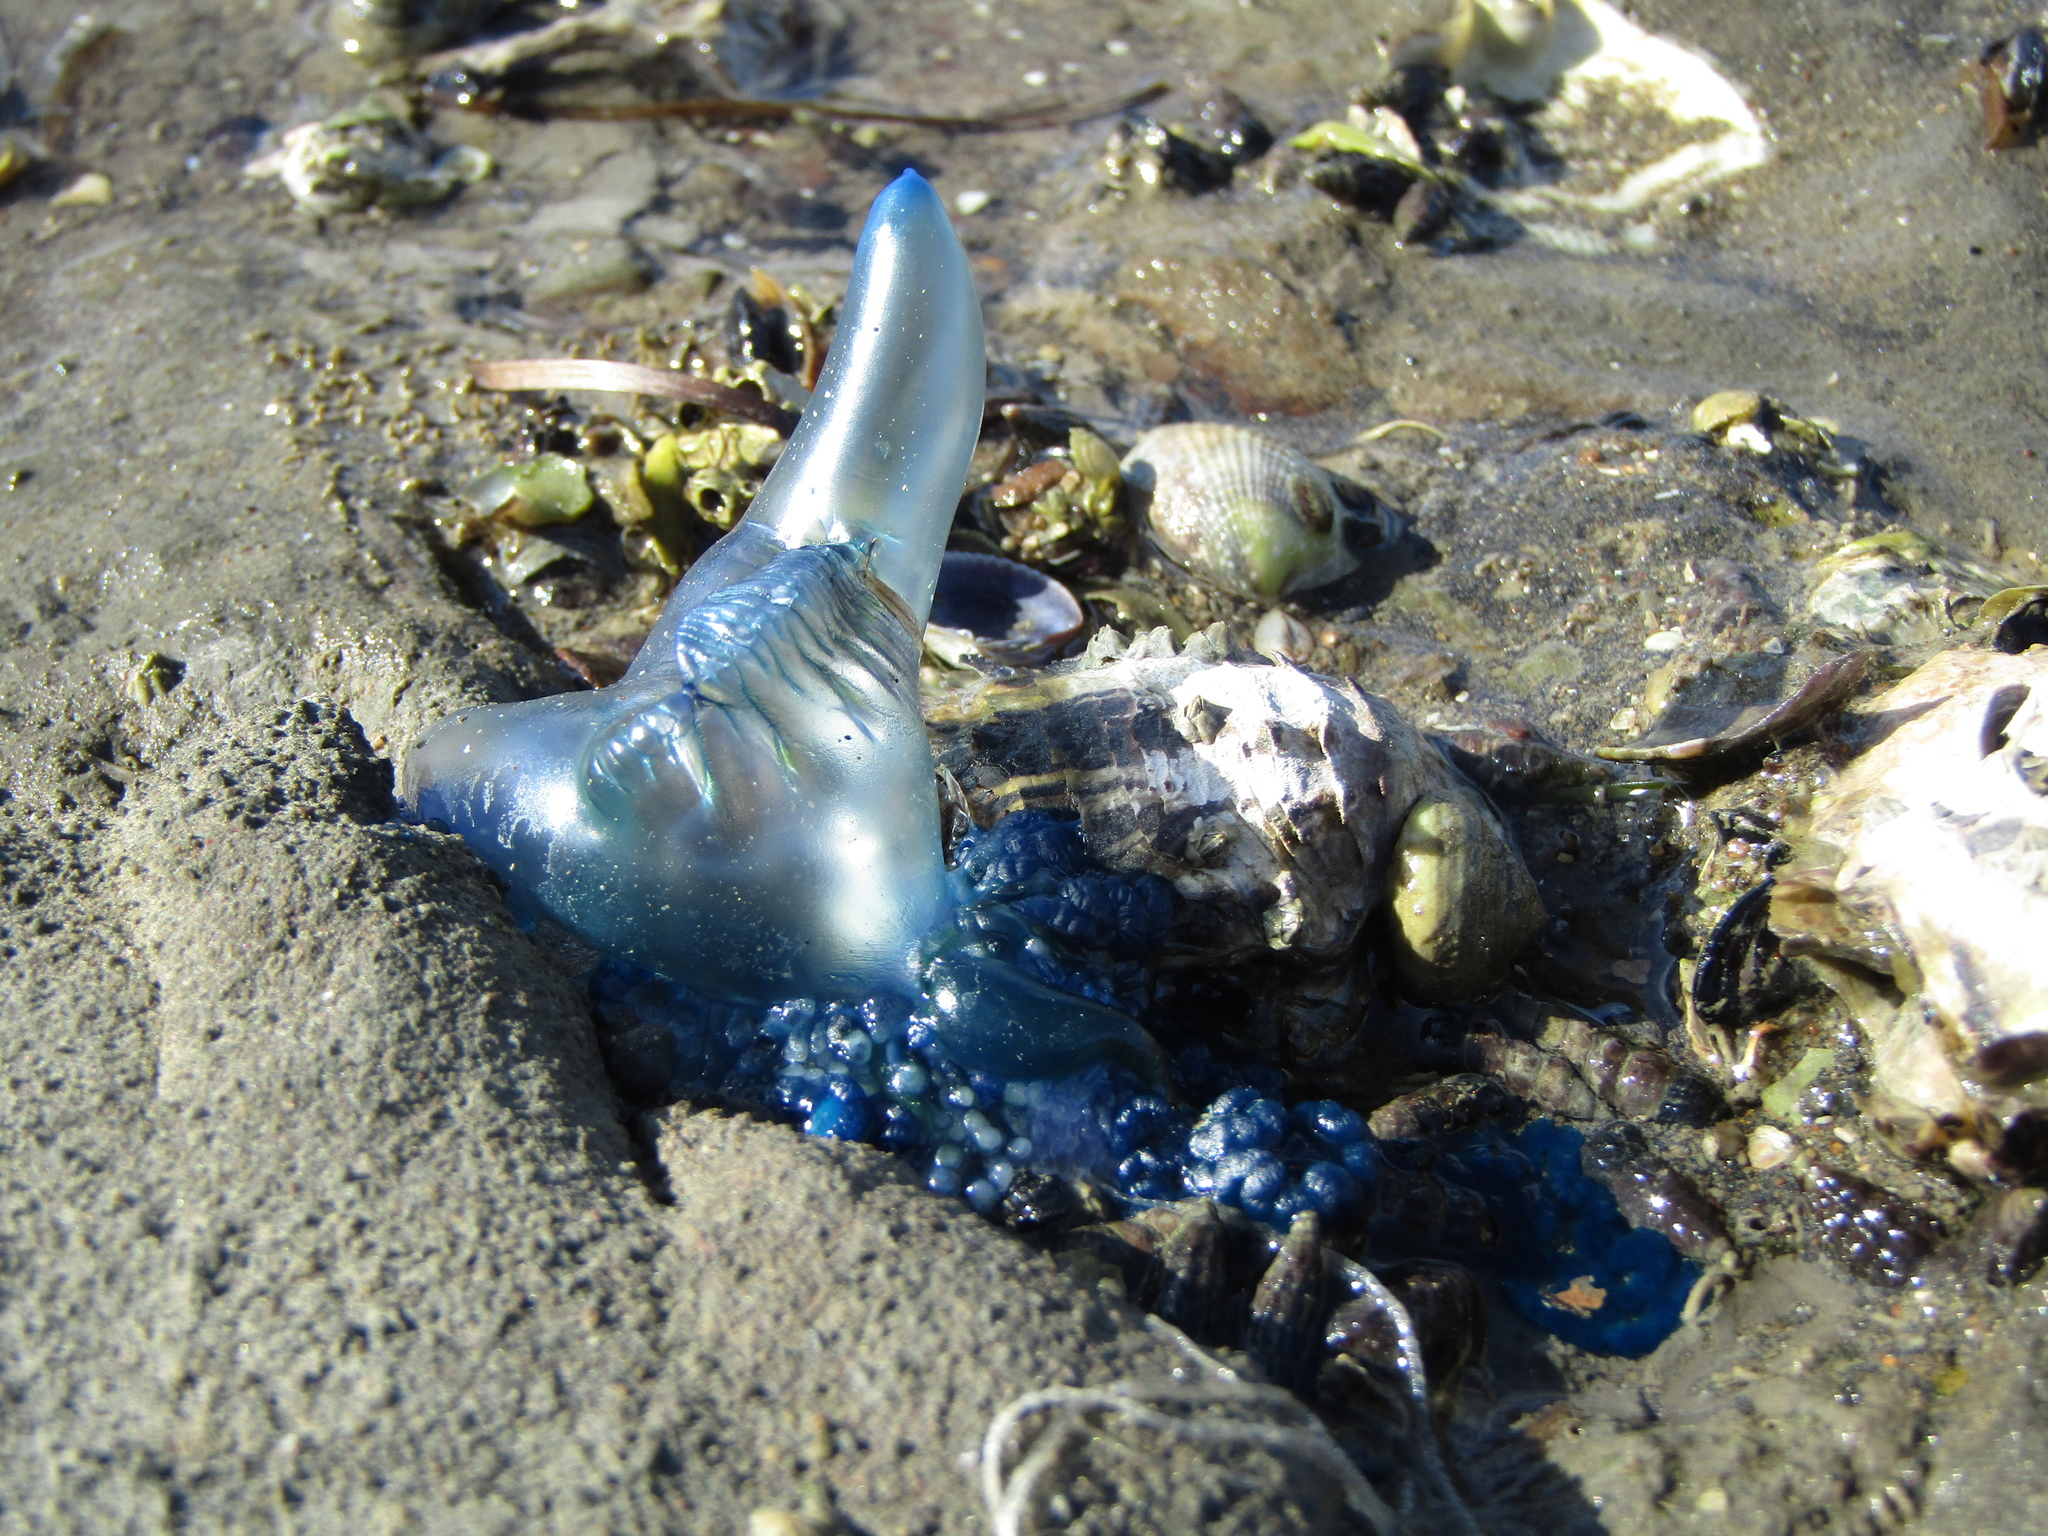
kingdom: Animalia
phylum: Cnidaria
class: Hydrozoa
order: Siphonophorae
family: Physaliidae
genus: Physalia
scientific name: Physalia physalis
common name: Portuguese man-of-war
